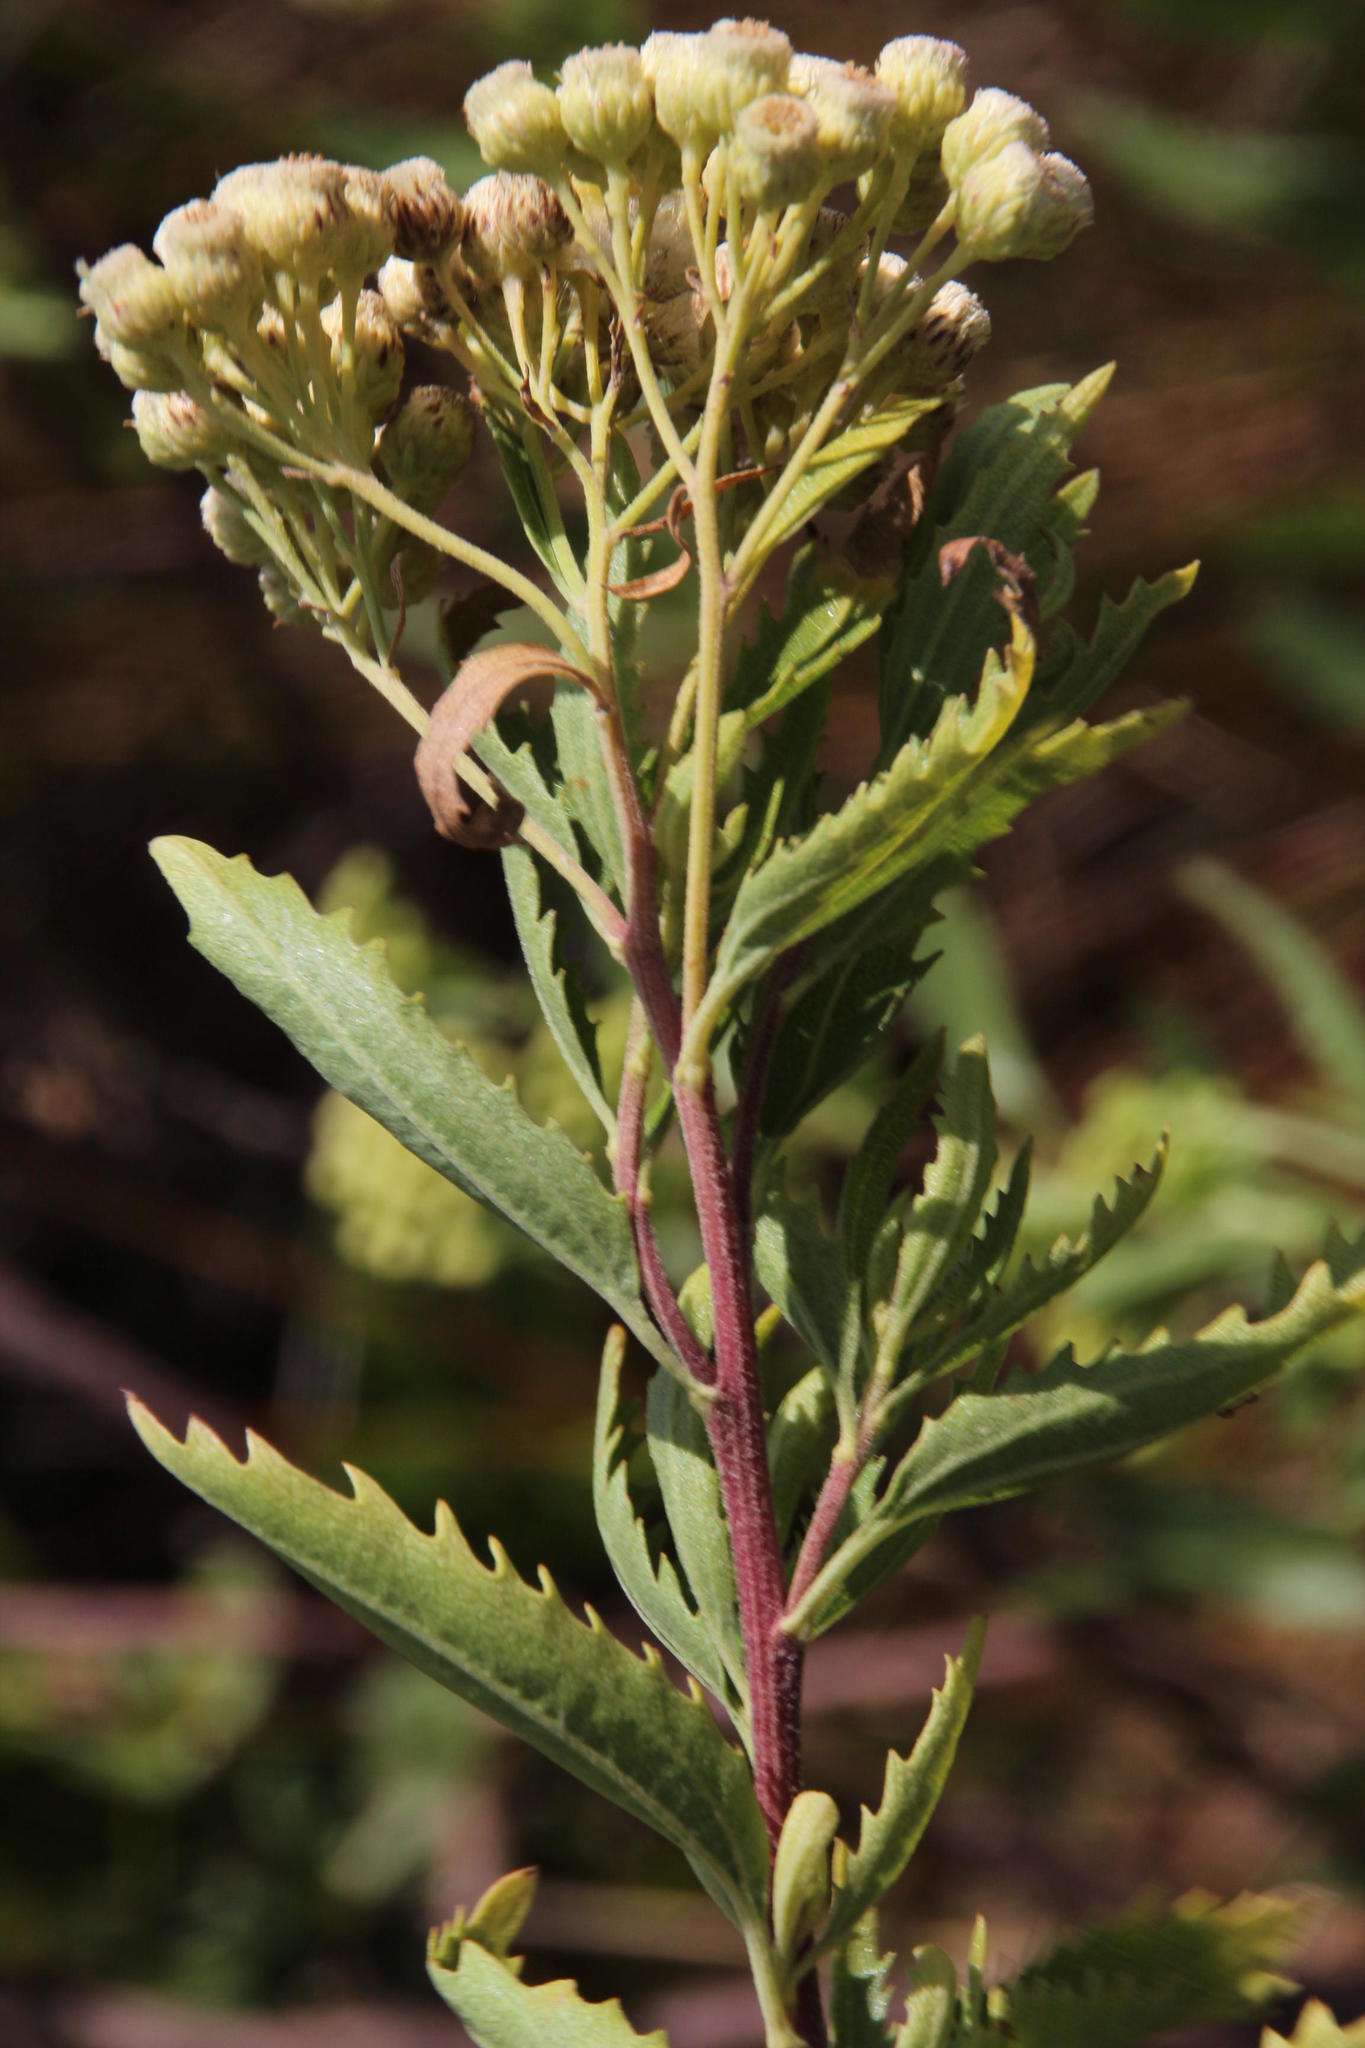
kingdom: Plantae
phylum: Tracheophyta
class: Magnoliopsida
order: Asterales
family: Asteraceae
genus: Nidorella
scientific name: Nidorella ivifolia
